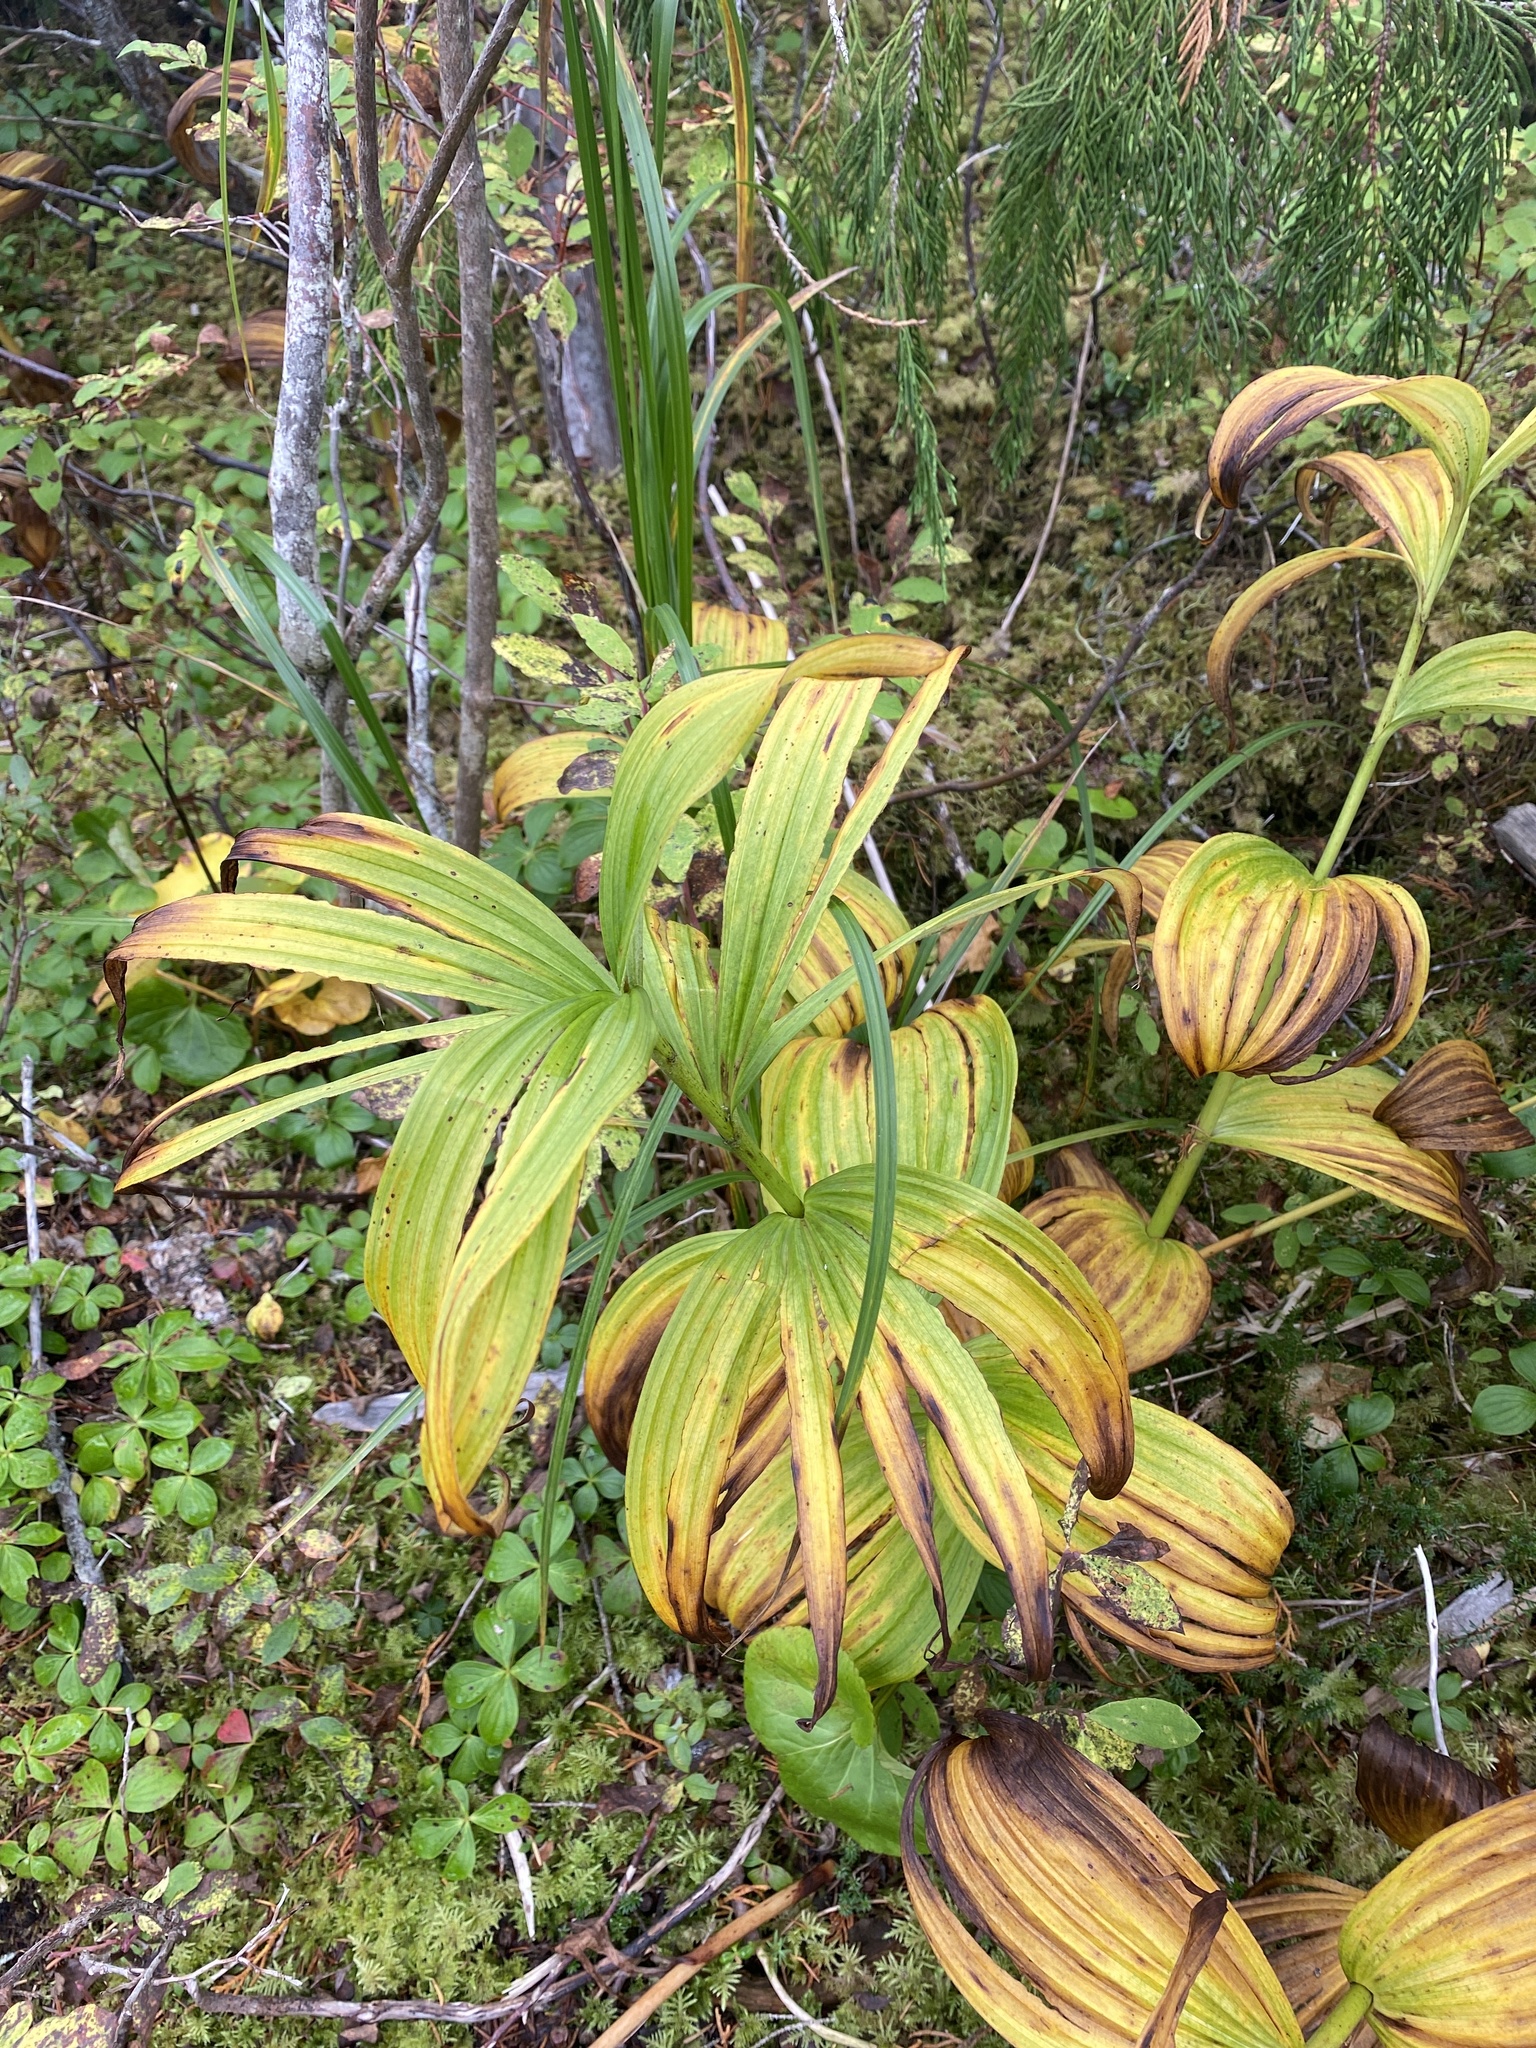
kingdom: Plantae
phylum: Tracheophyta
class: Liliopsida
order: Liliales
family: Melanthiaceae
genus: Veratrum
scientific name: Veratrum viride
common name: American false hellebore
